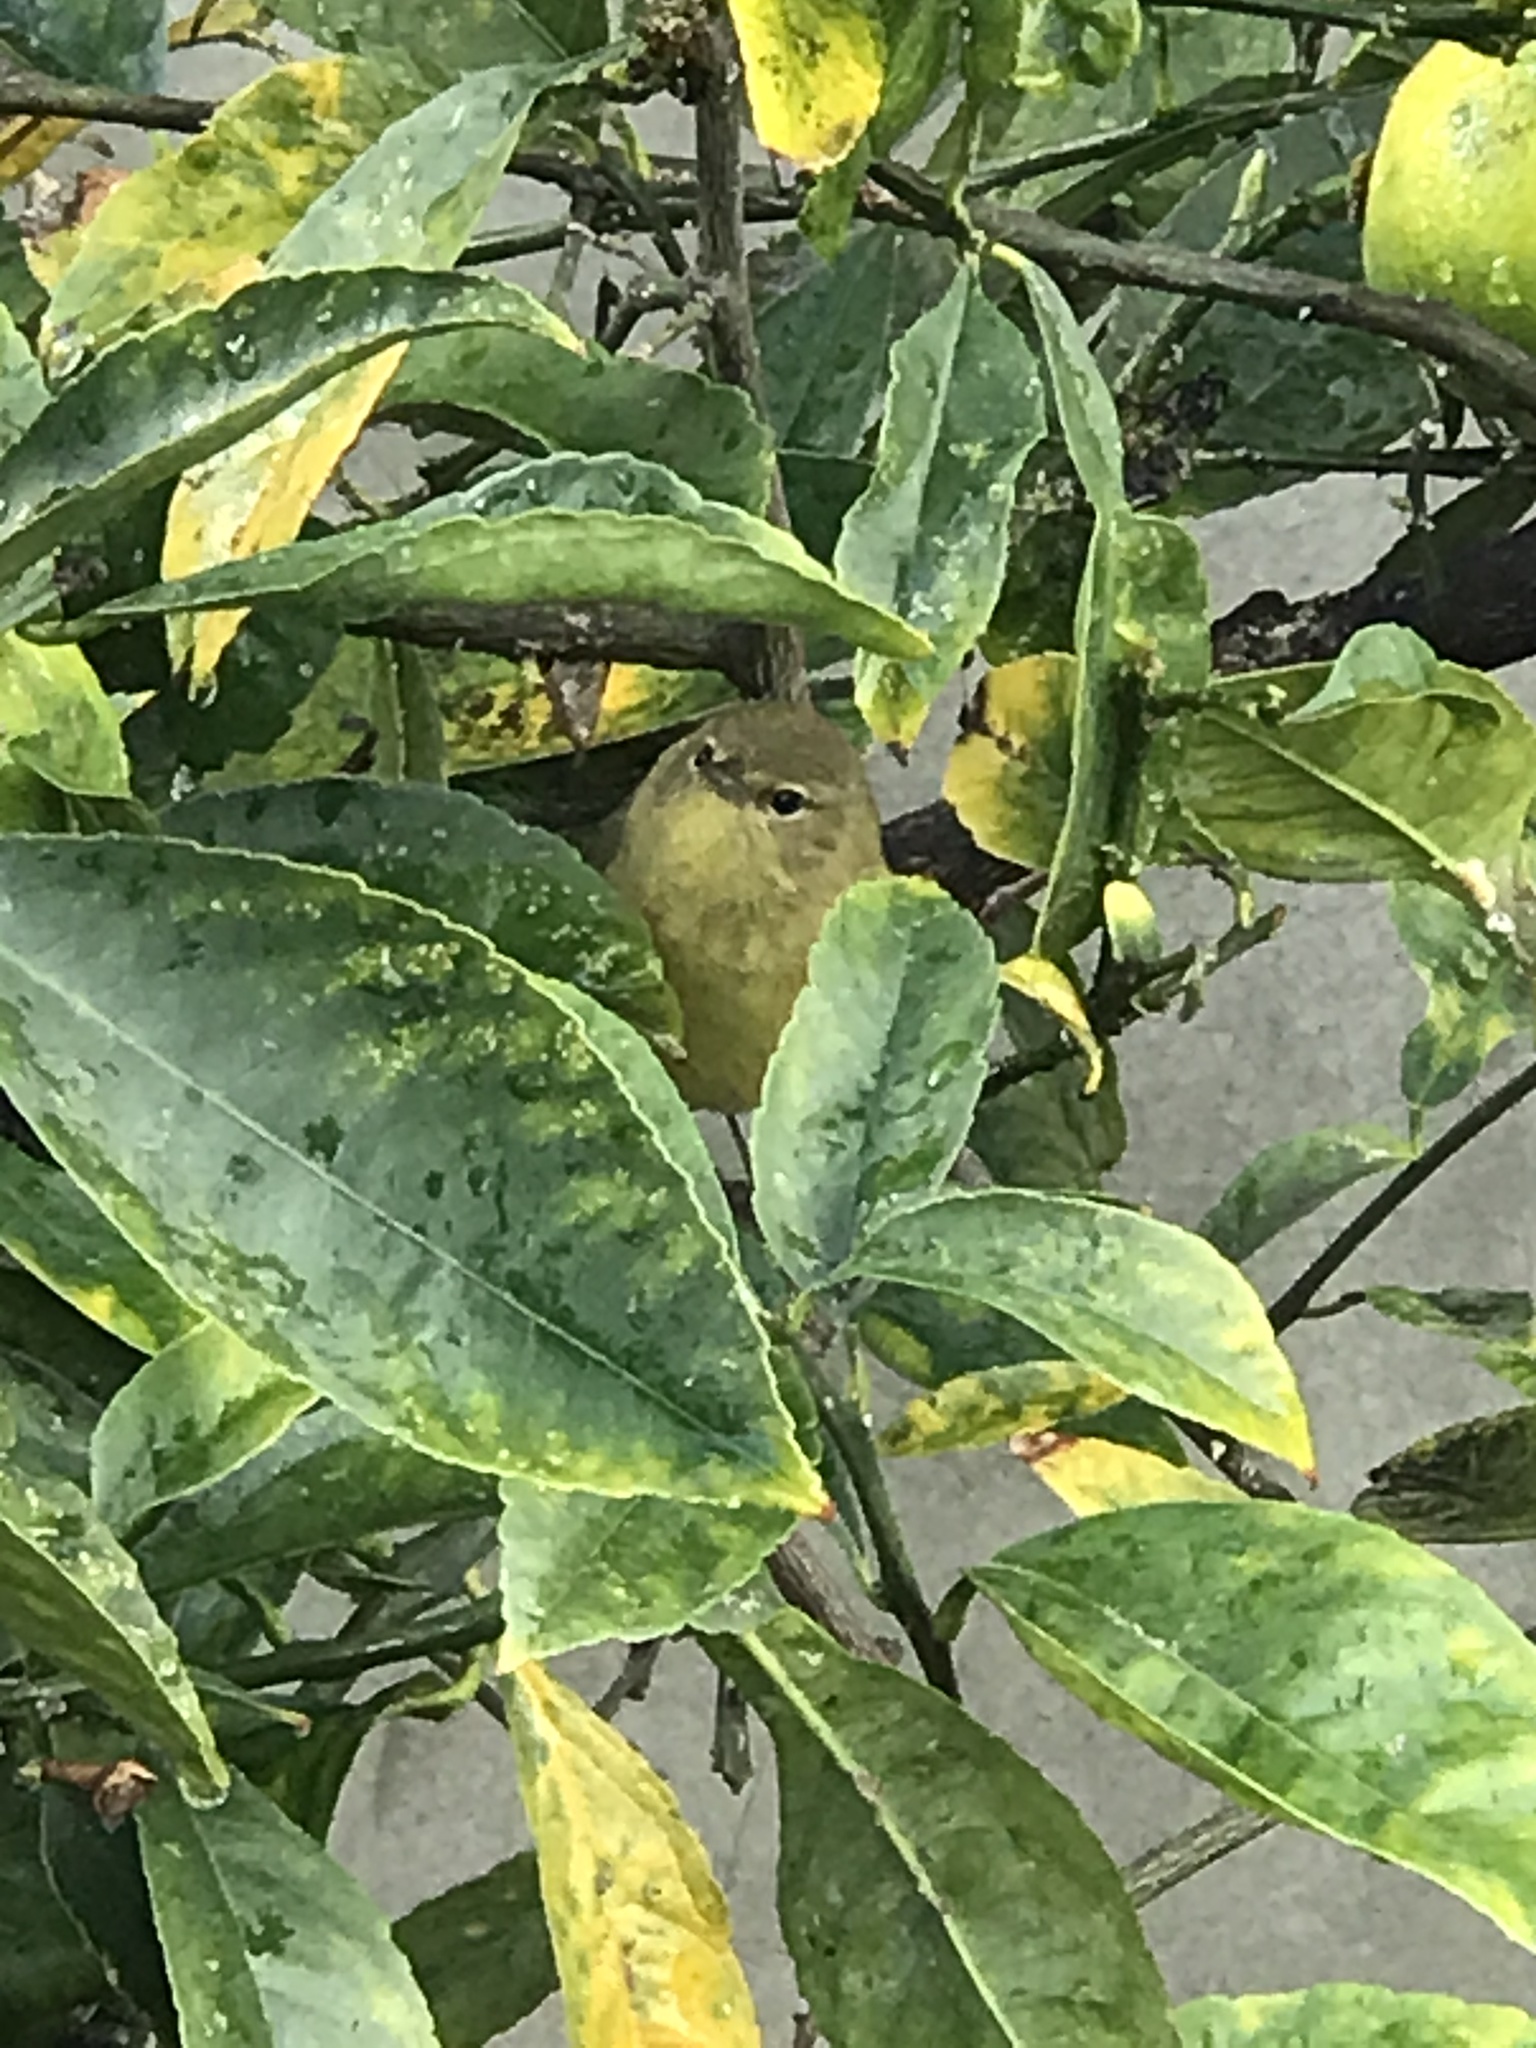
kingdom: Animalia
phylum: Chordata
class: Aves
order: Passeriformes
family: Parulidae
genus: Leiothlypis
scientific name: Leiothlypis celata
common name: Orange-crowned warbler
